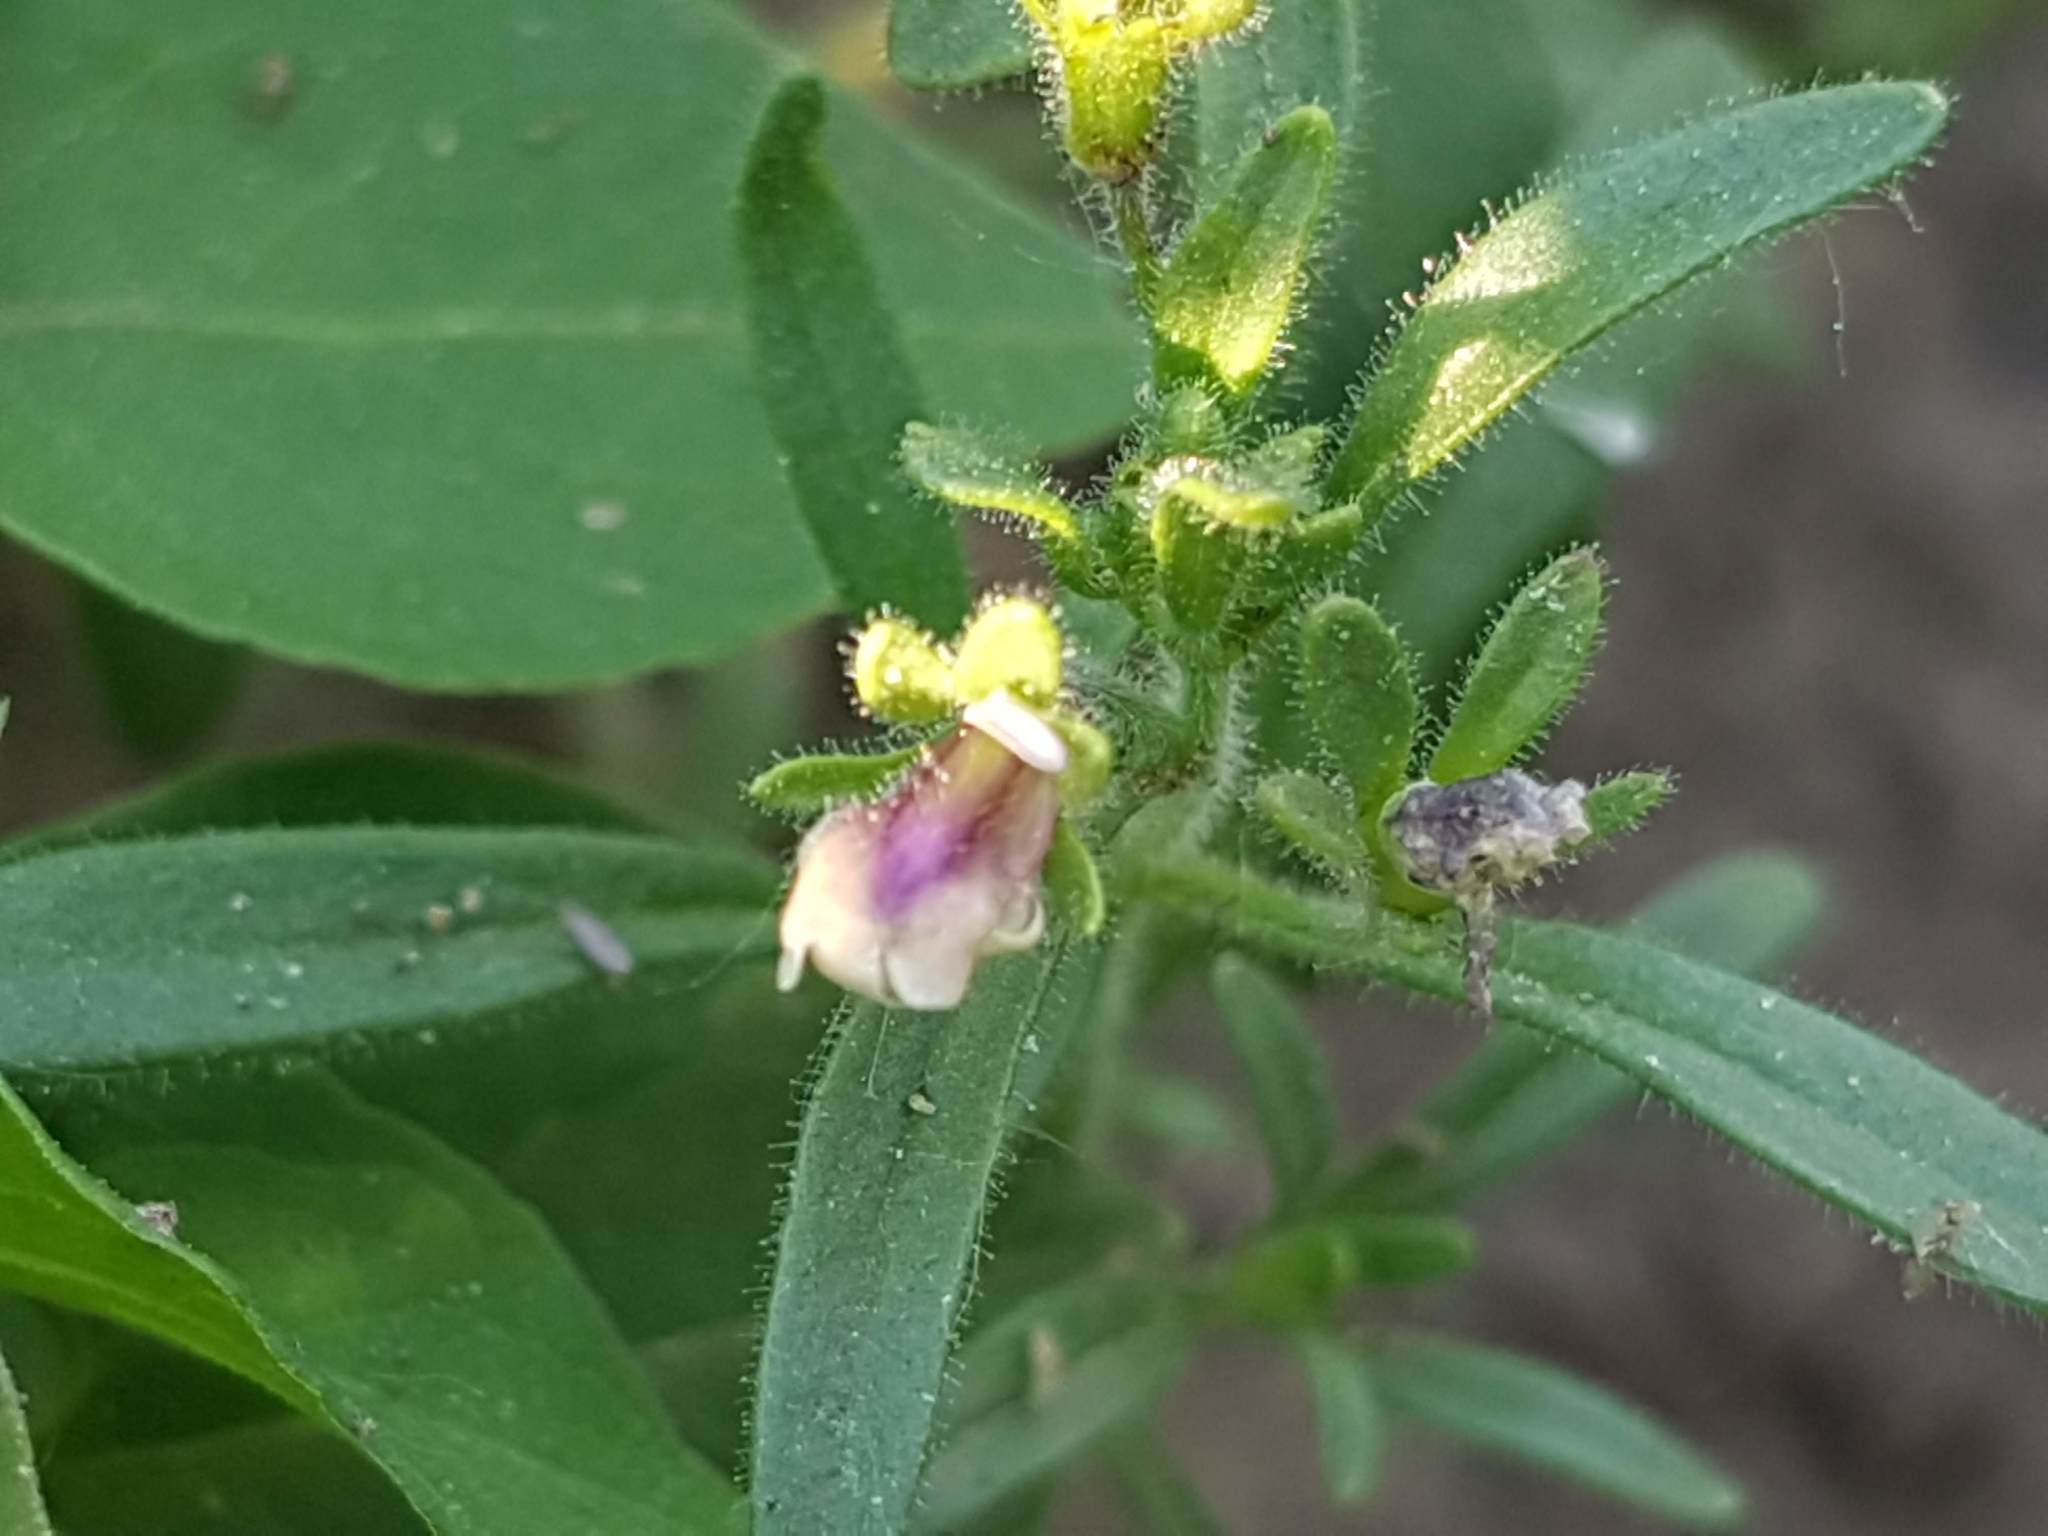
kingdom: Plantae
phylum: Tracheophyta
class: Magnoliopsida
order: Lamiales
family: Plantaginaceae
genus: Chaenorhinum
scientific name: Chaenorhinum minus
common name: Dwarf snapdragon
